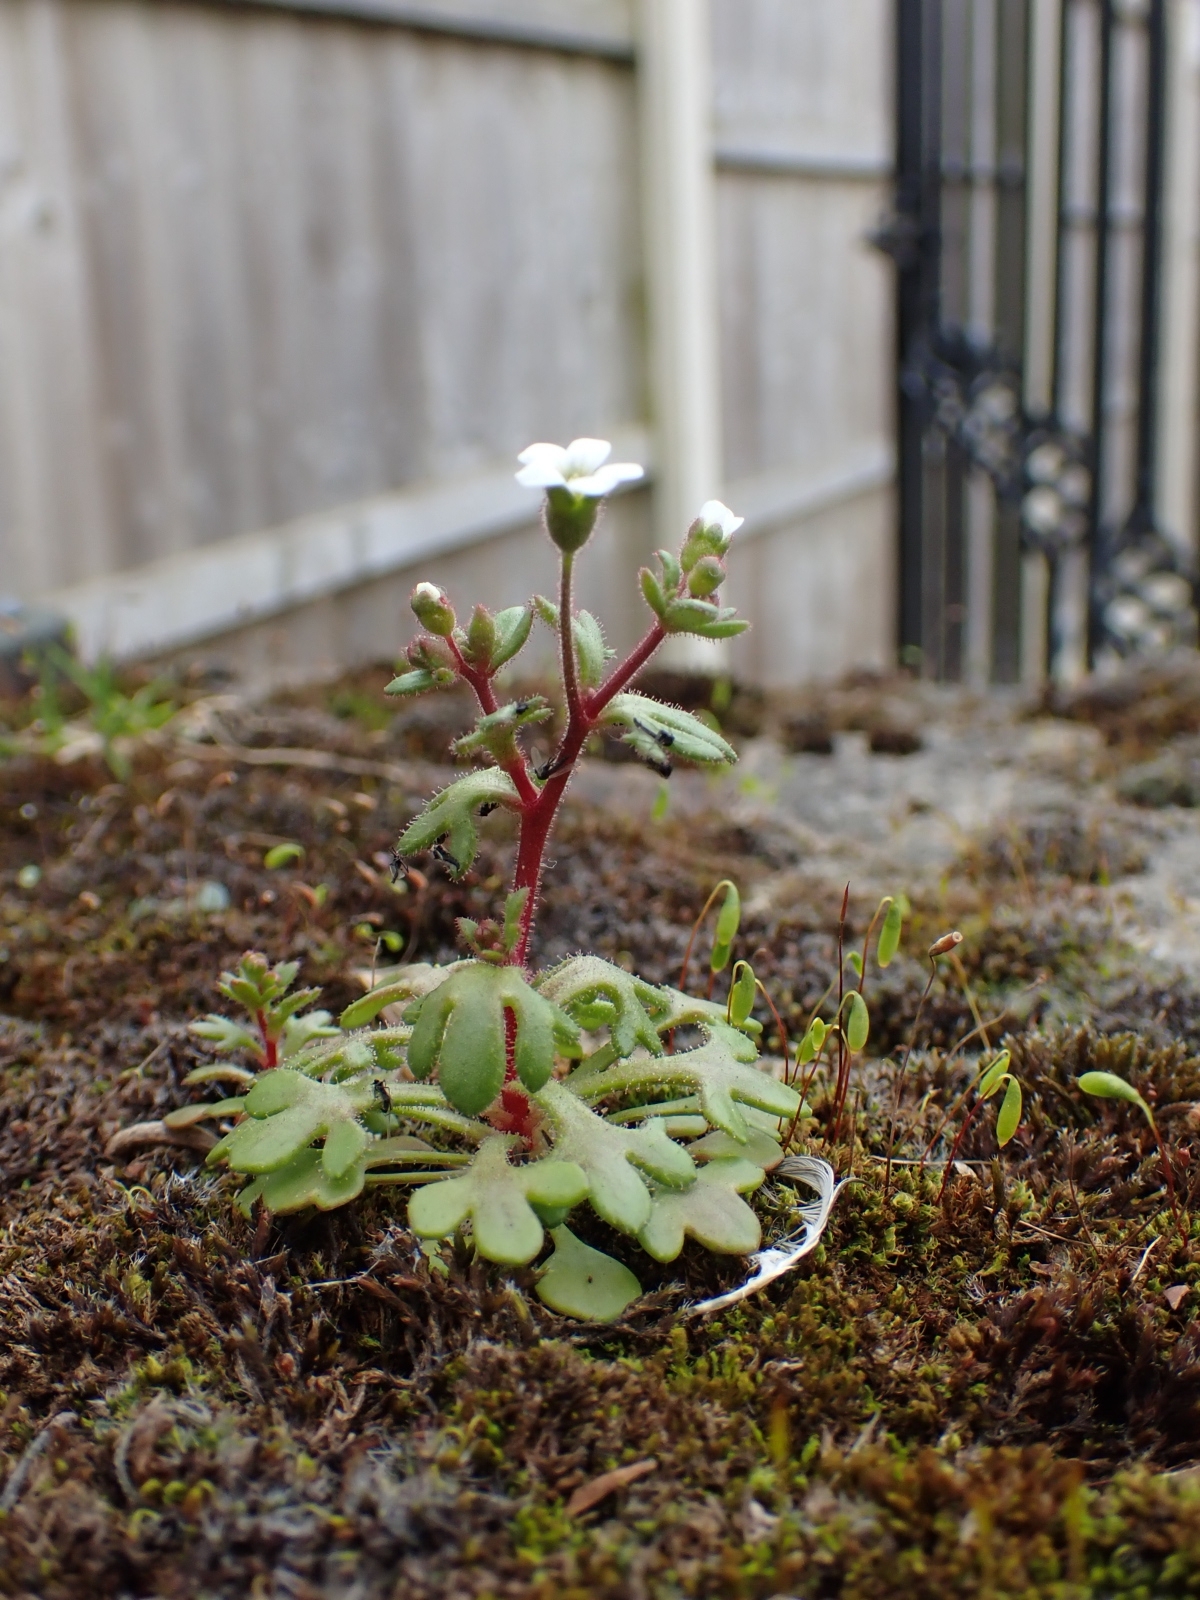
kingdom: Plantae
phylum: Tracheophyta
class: Magnoliopsida
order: Saxifragales
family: Saxifragaceae
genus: Saxifraga
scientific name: Saxifraga tridactylites
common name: Rue-leaved saxifrage
